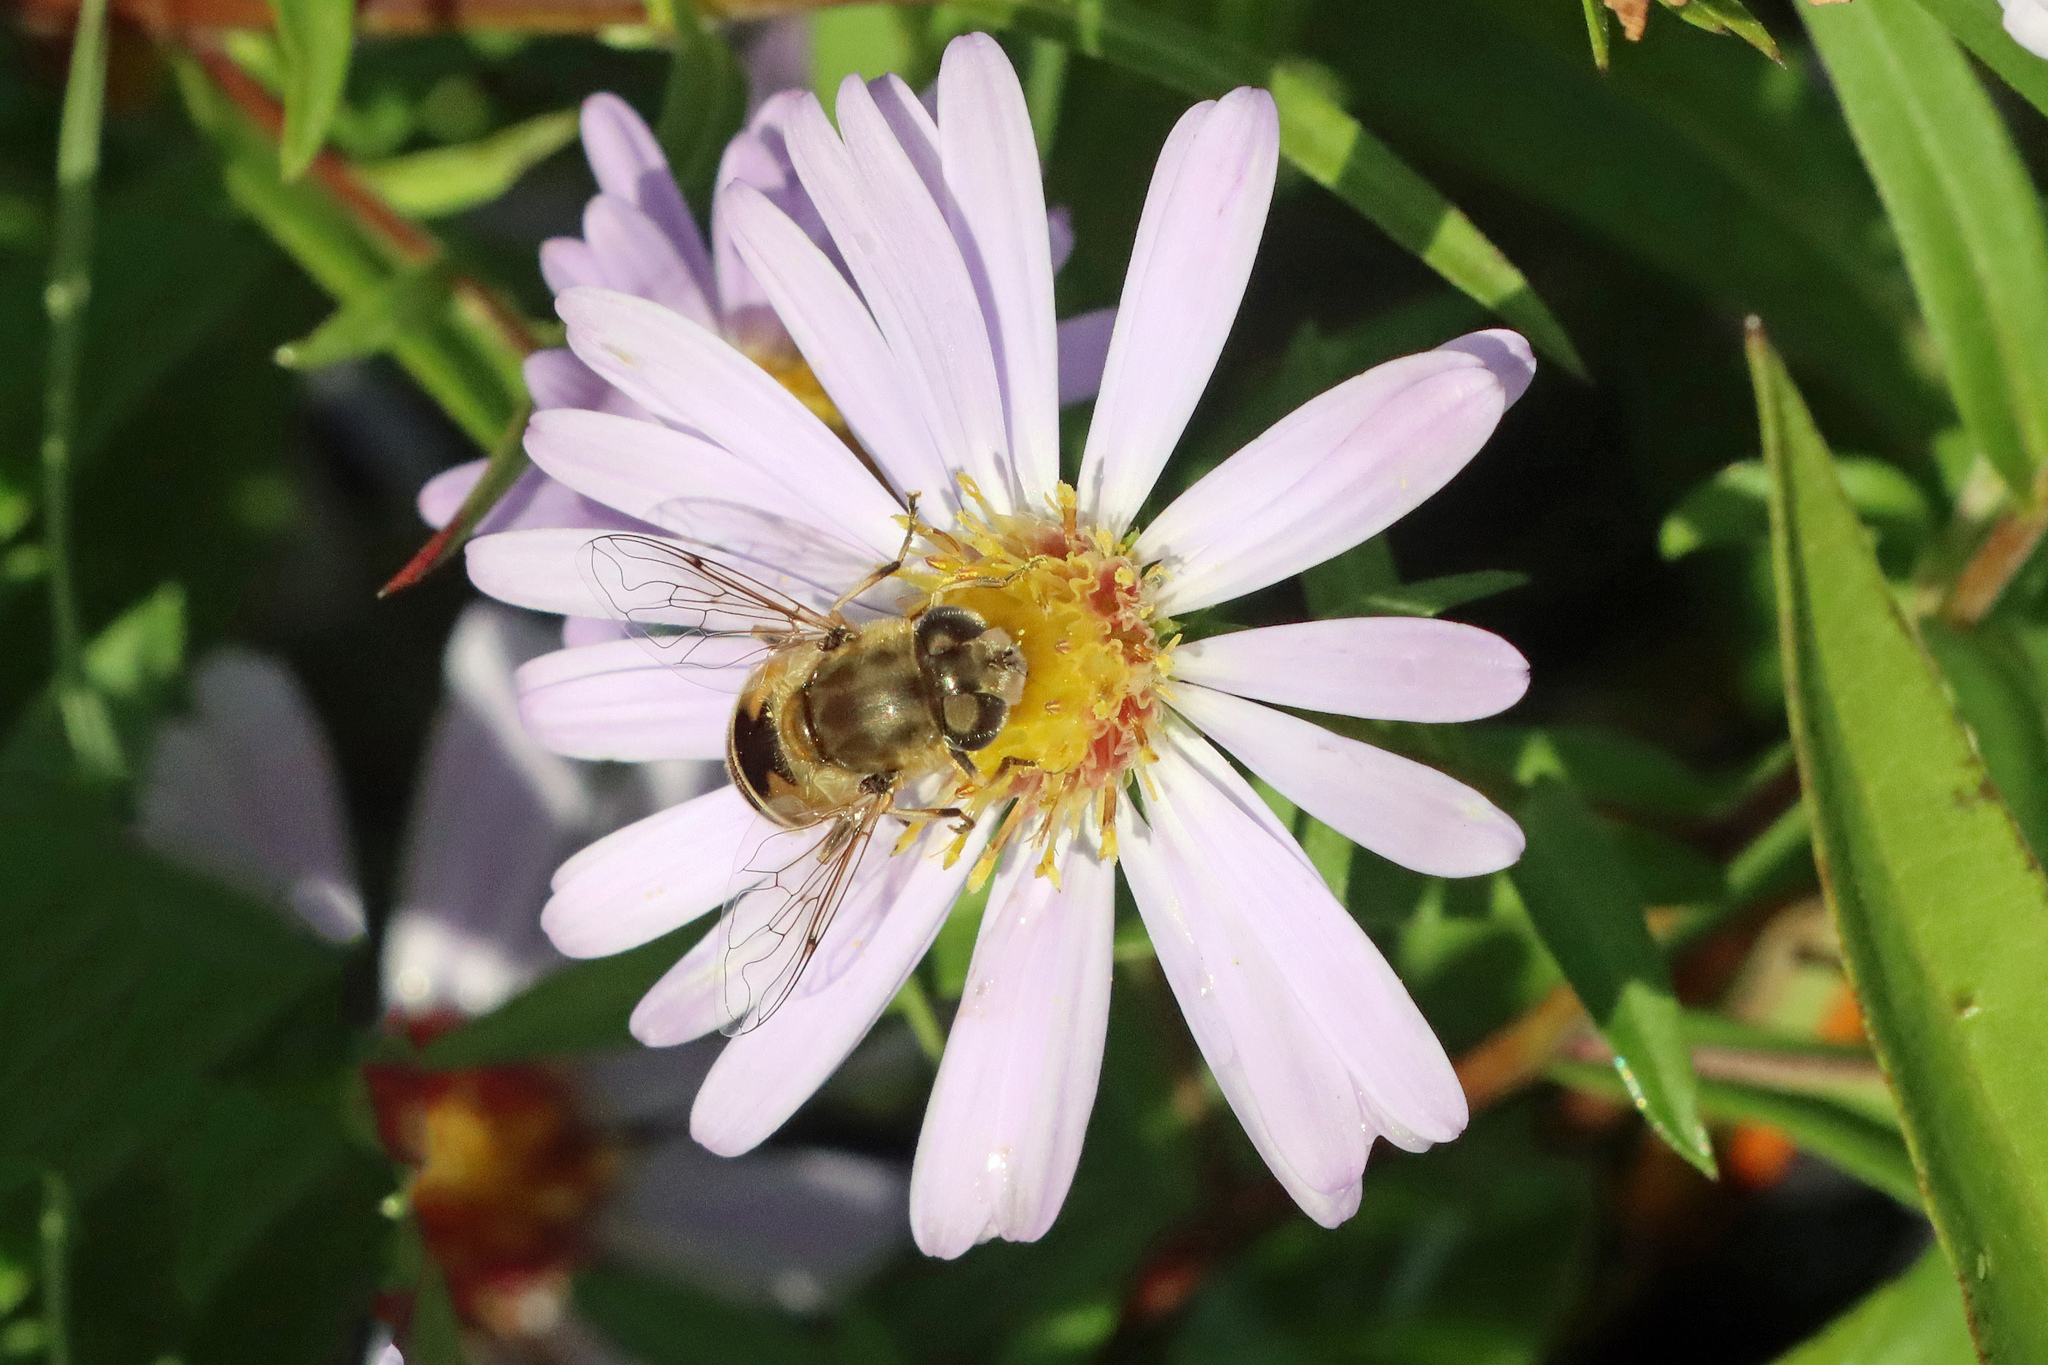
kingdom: Animalia
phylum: Arthropoda
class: Insecta
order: Diptera
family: Syrphidae
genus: Eristalis
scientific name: Eristalis arbustorum
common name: Hover fly
